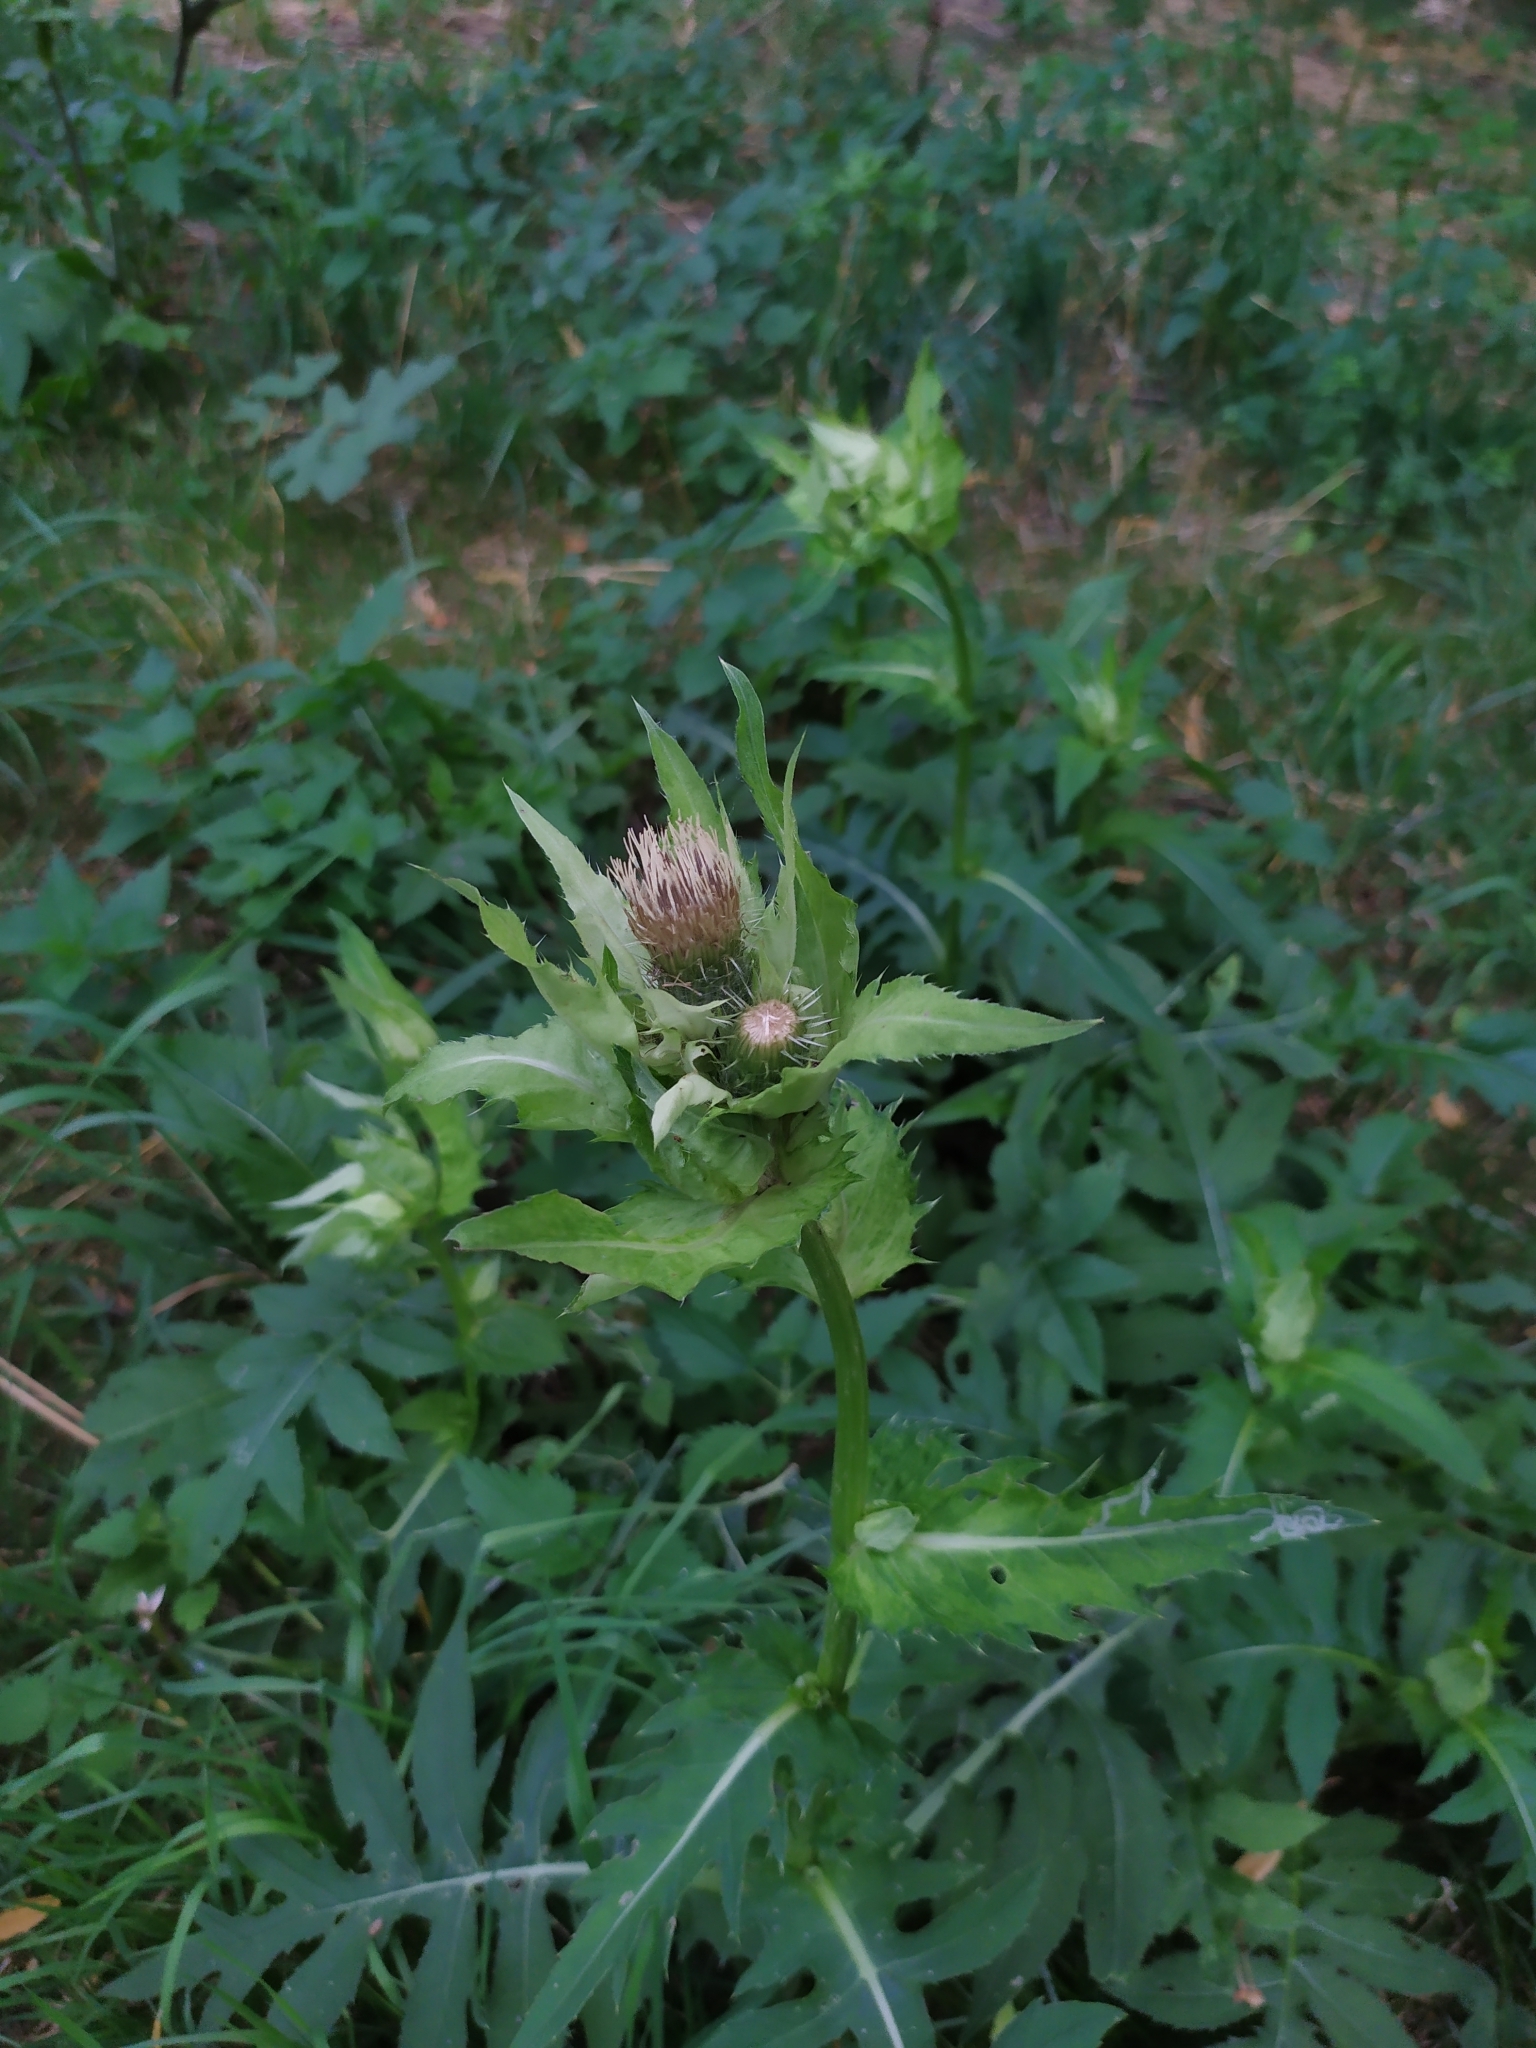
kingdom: Plantae
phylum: Tracheophyta
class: Magnoliopsida
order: Asterales
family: Asteraceae
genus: Cirsium
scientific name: Cirsium oleraceum
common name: Cabbage thistle
